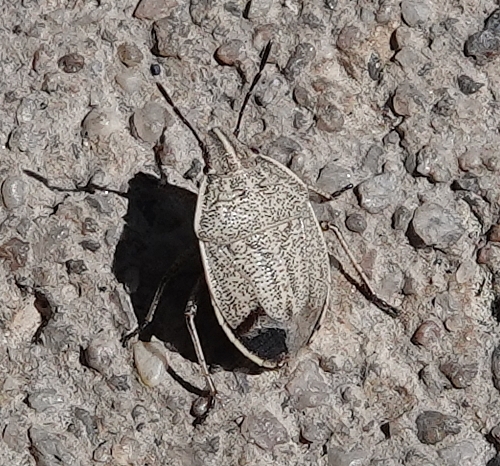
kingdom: Animalia
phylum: Arthropoda
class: Insecta
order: Hemiptera
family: Pentatomidae
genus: Coenus
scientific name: Coenus delius
